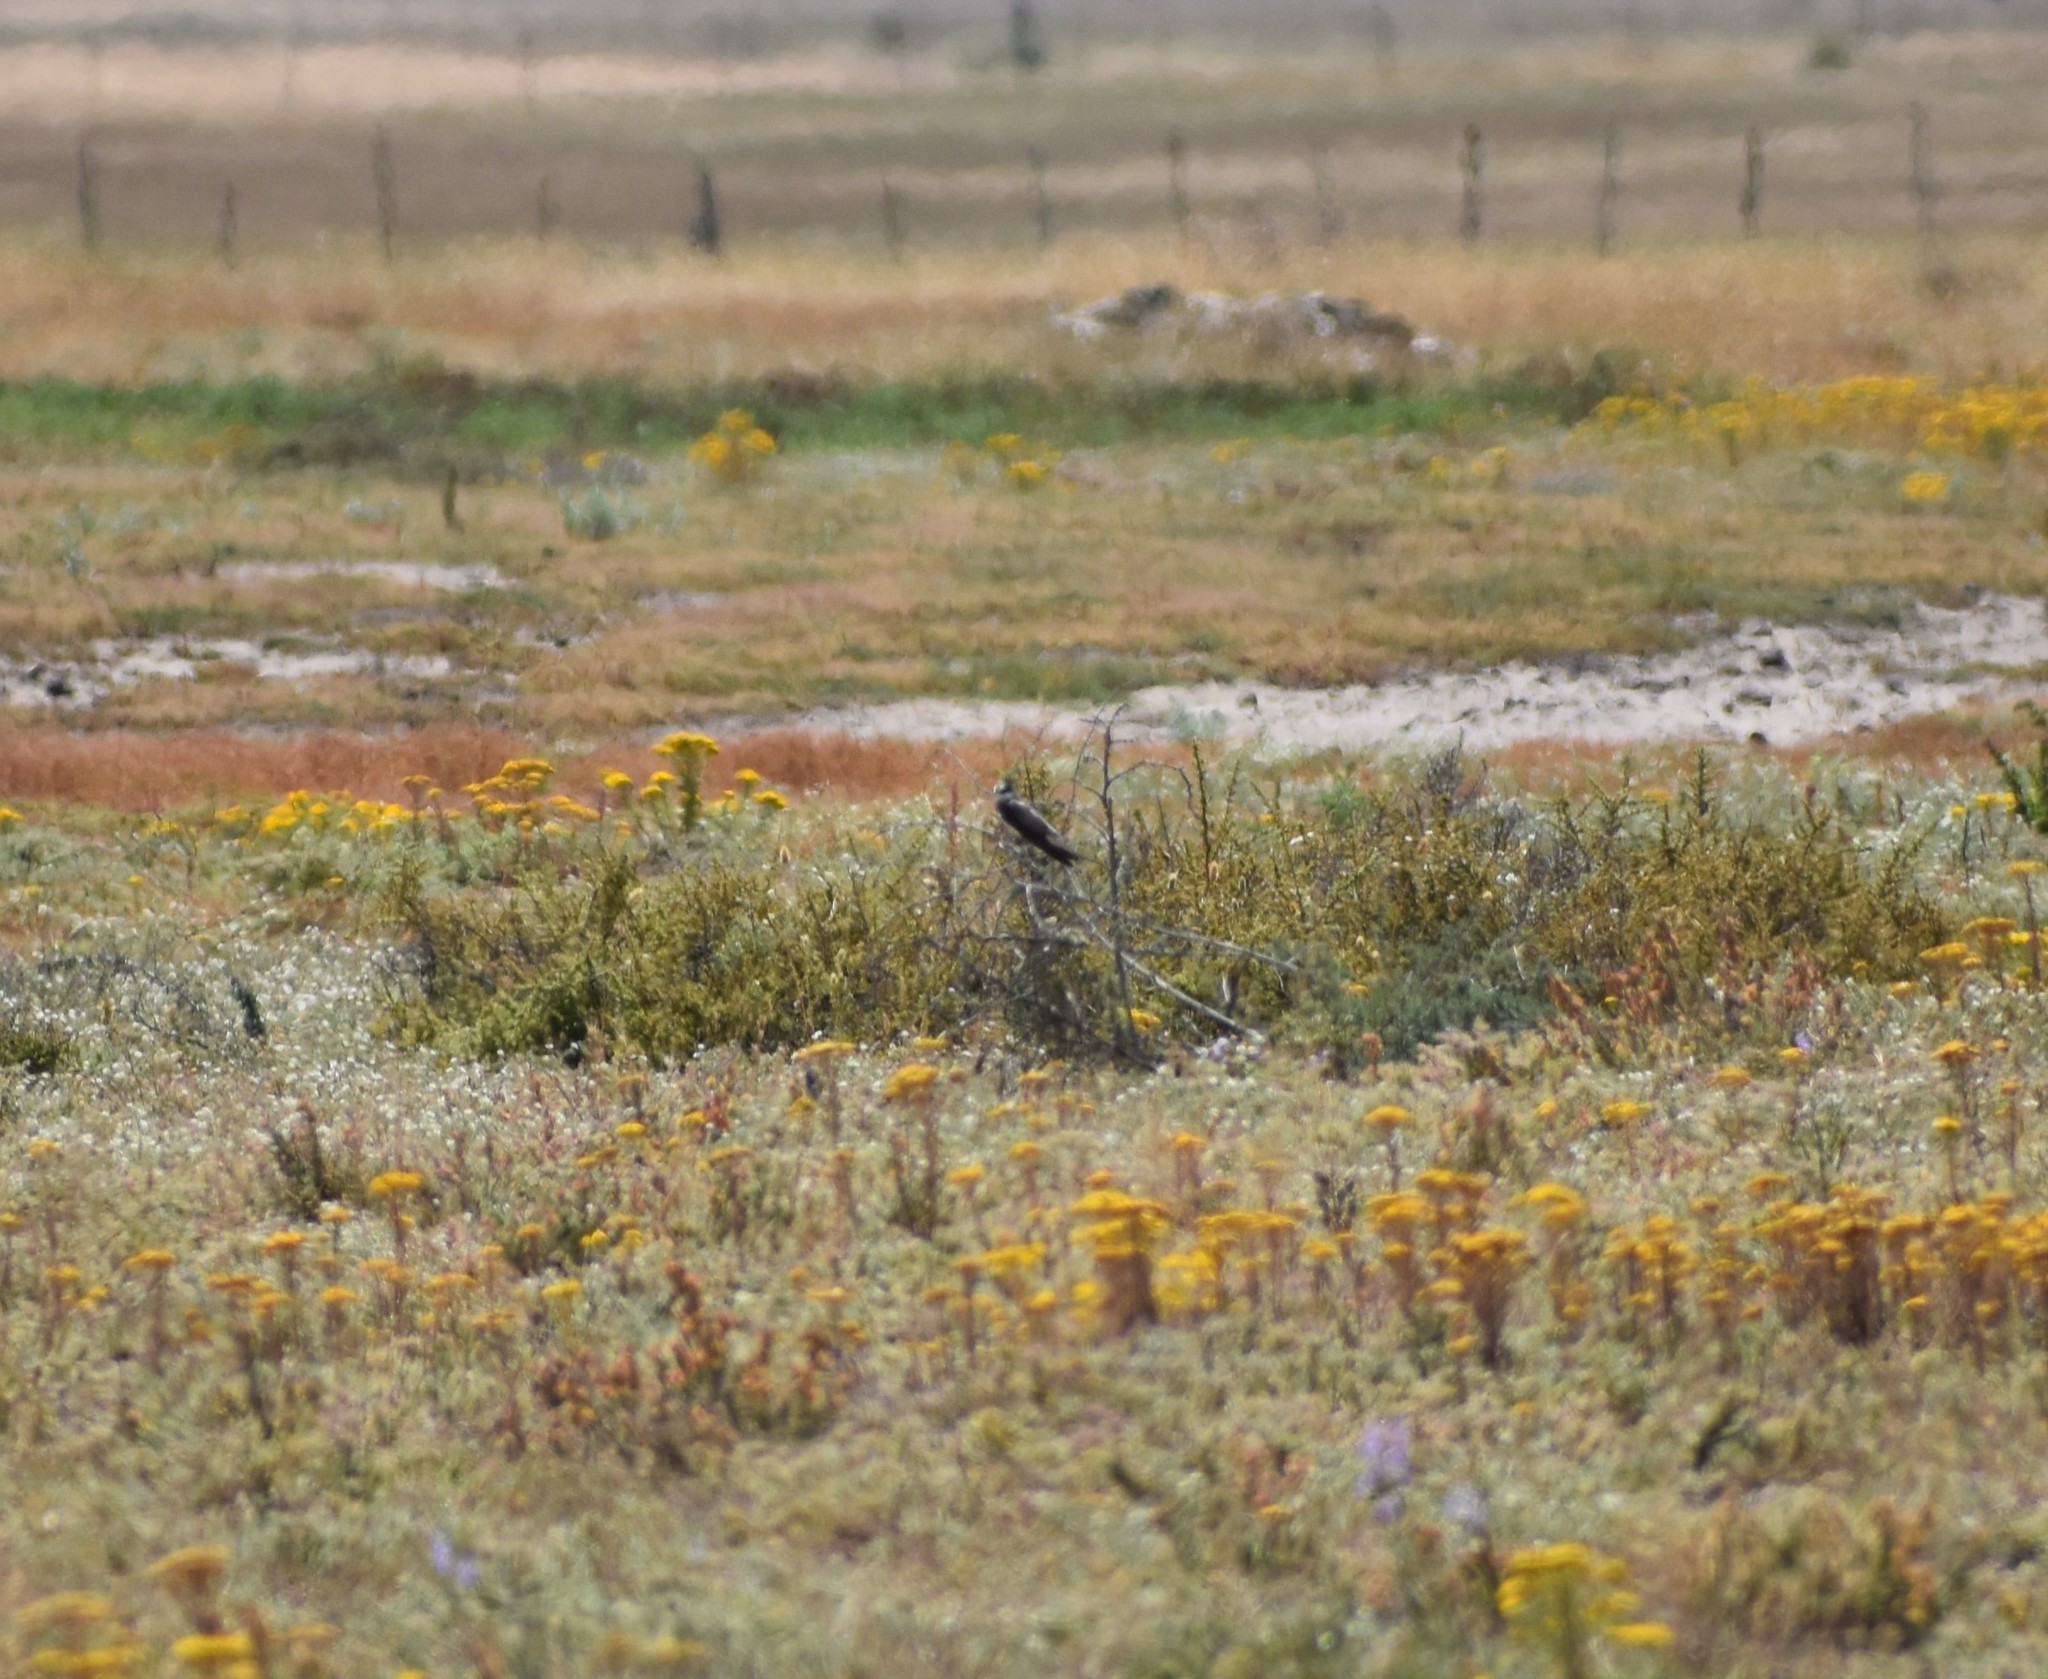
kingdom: Animalia
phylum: Chordata
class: Aves
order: Passeriformes
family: Hirundinidae
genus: Riparia
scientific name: Riparia cincta
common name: Banded martin
